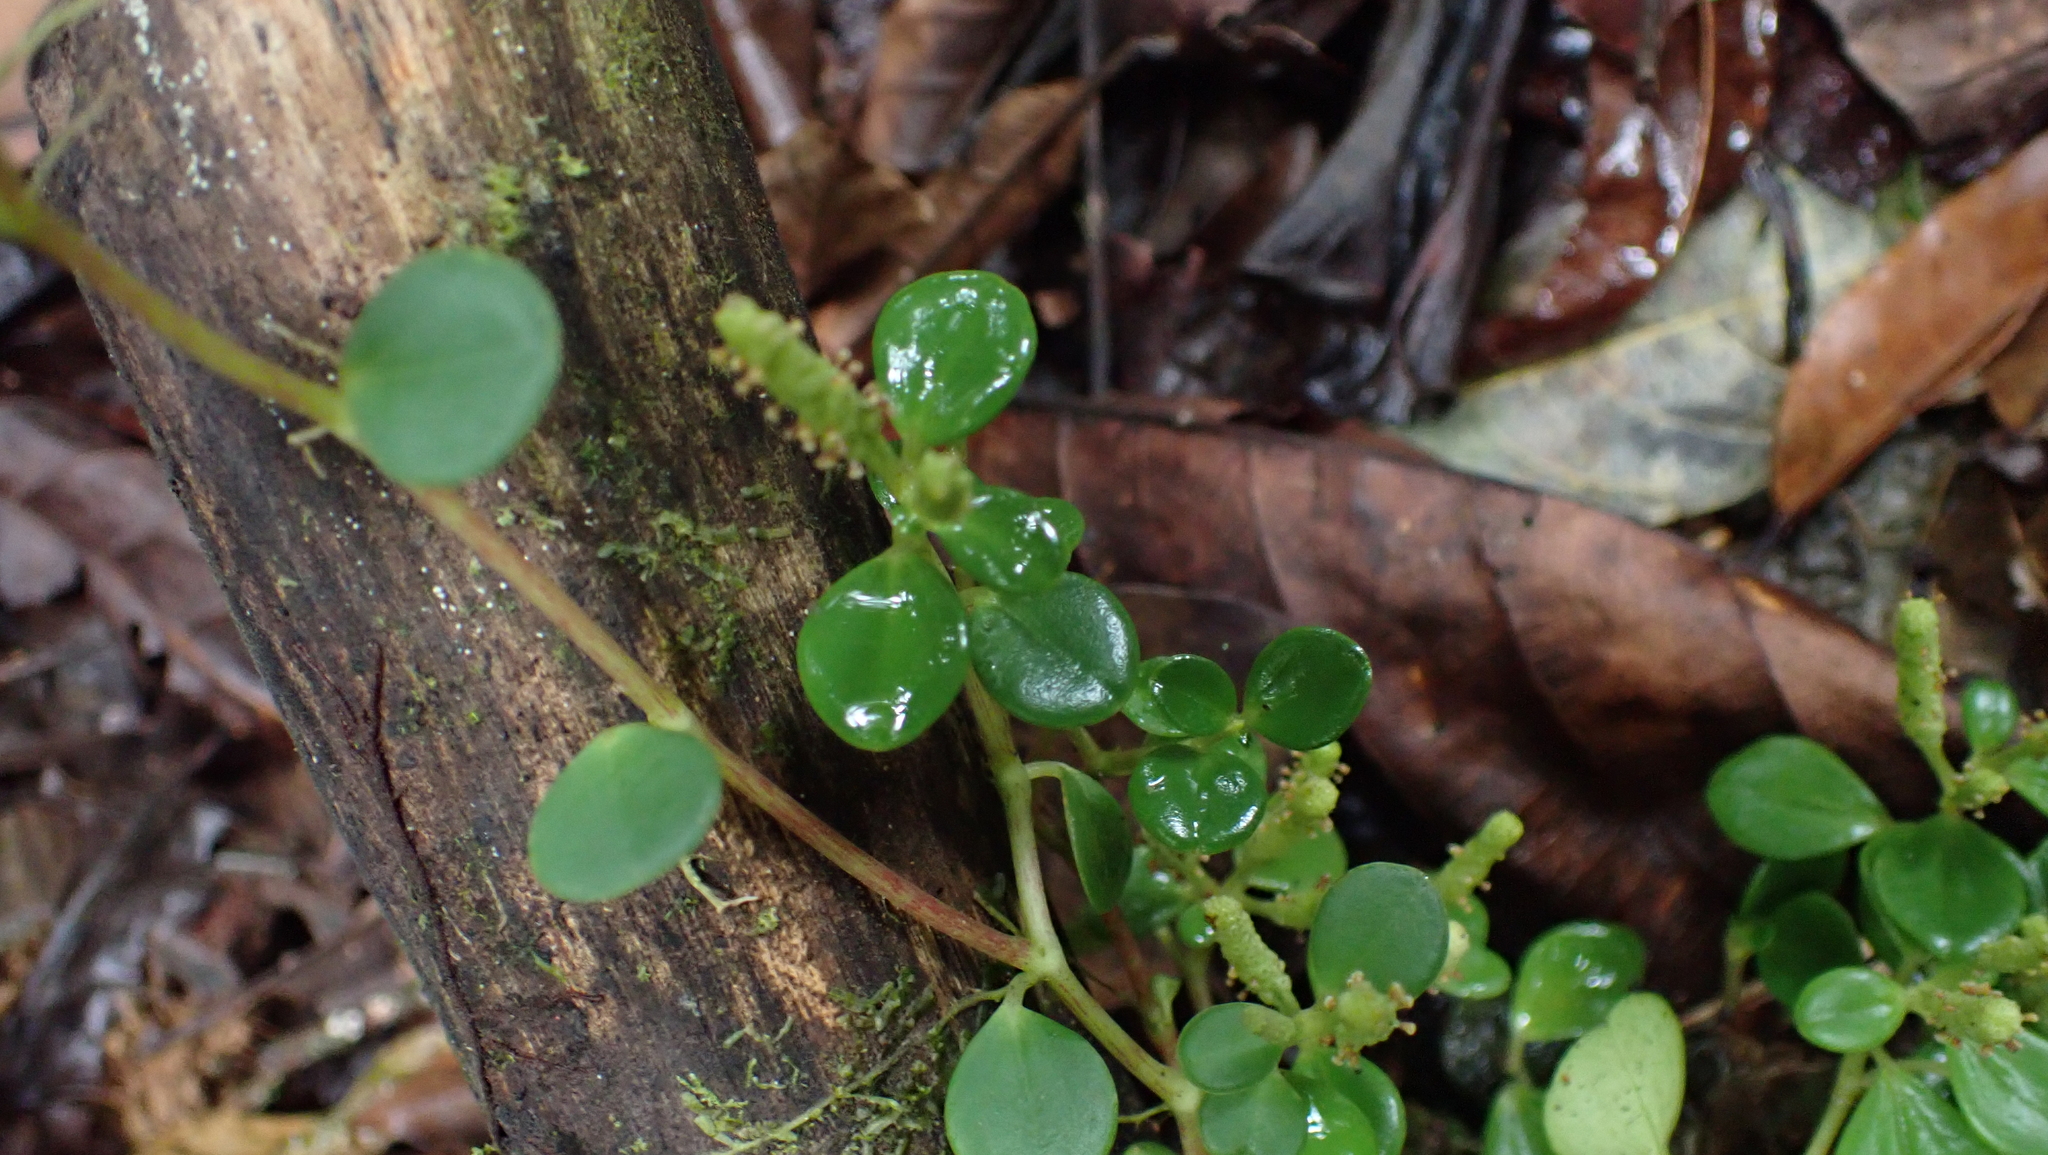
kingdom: Plantae
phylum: Tracheophyta
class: Magnoliopsida
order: Piperales
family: Piperaceae
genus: Peperomia
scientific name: Peperomia silvivaga
